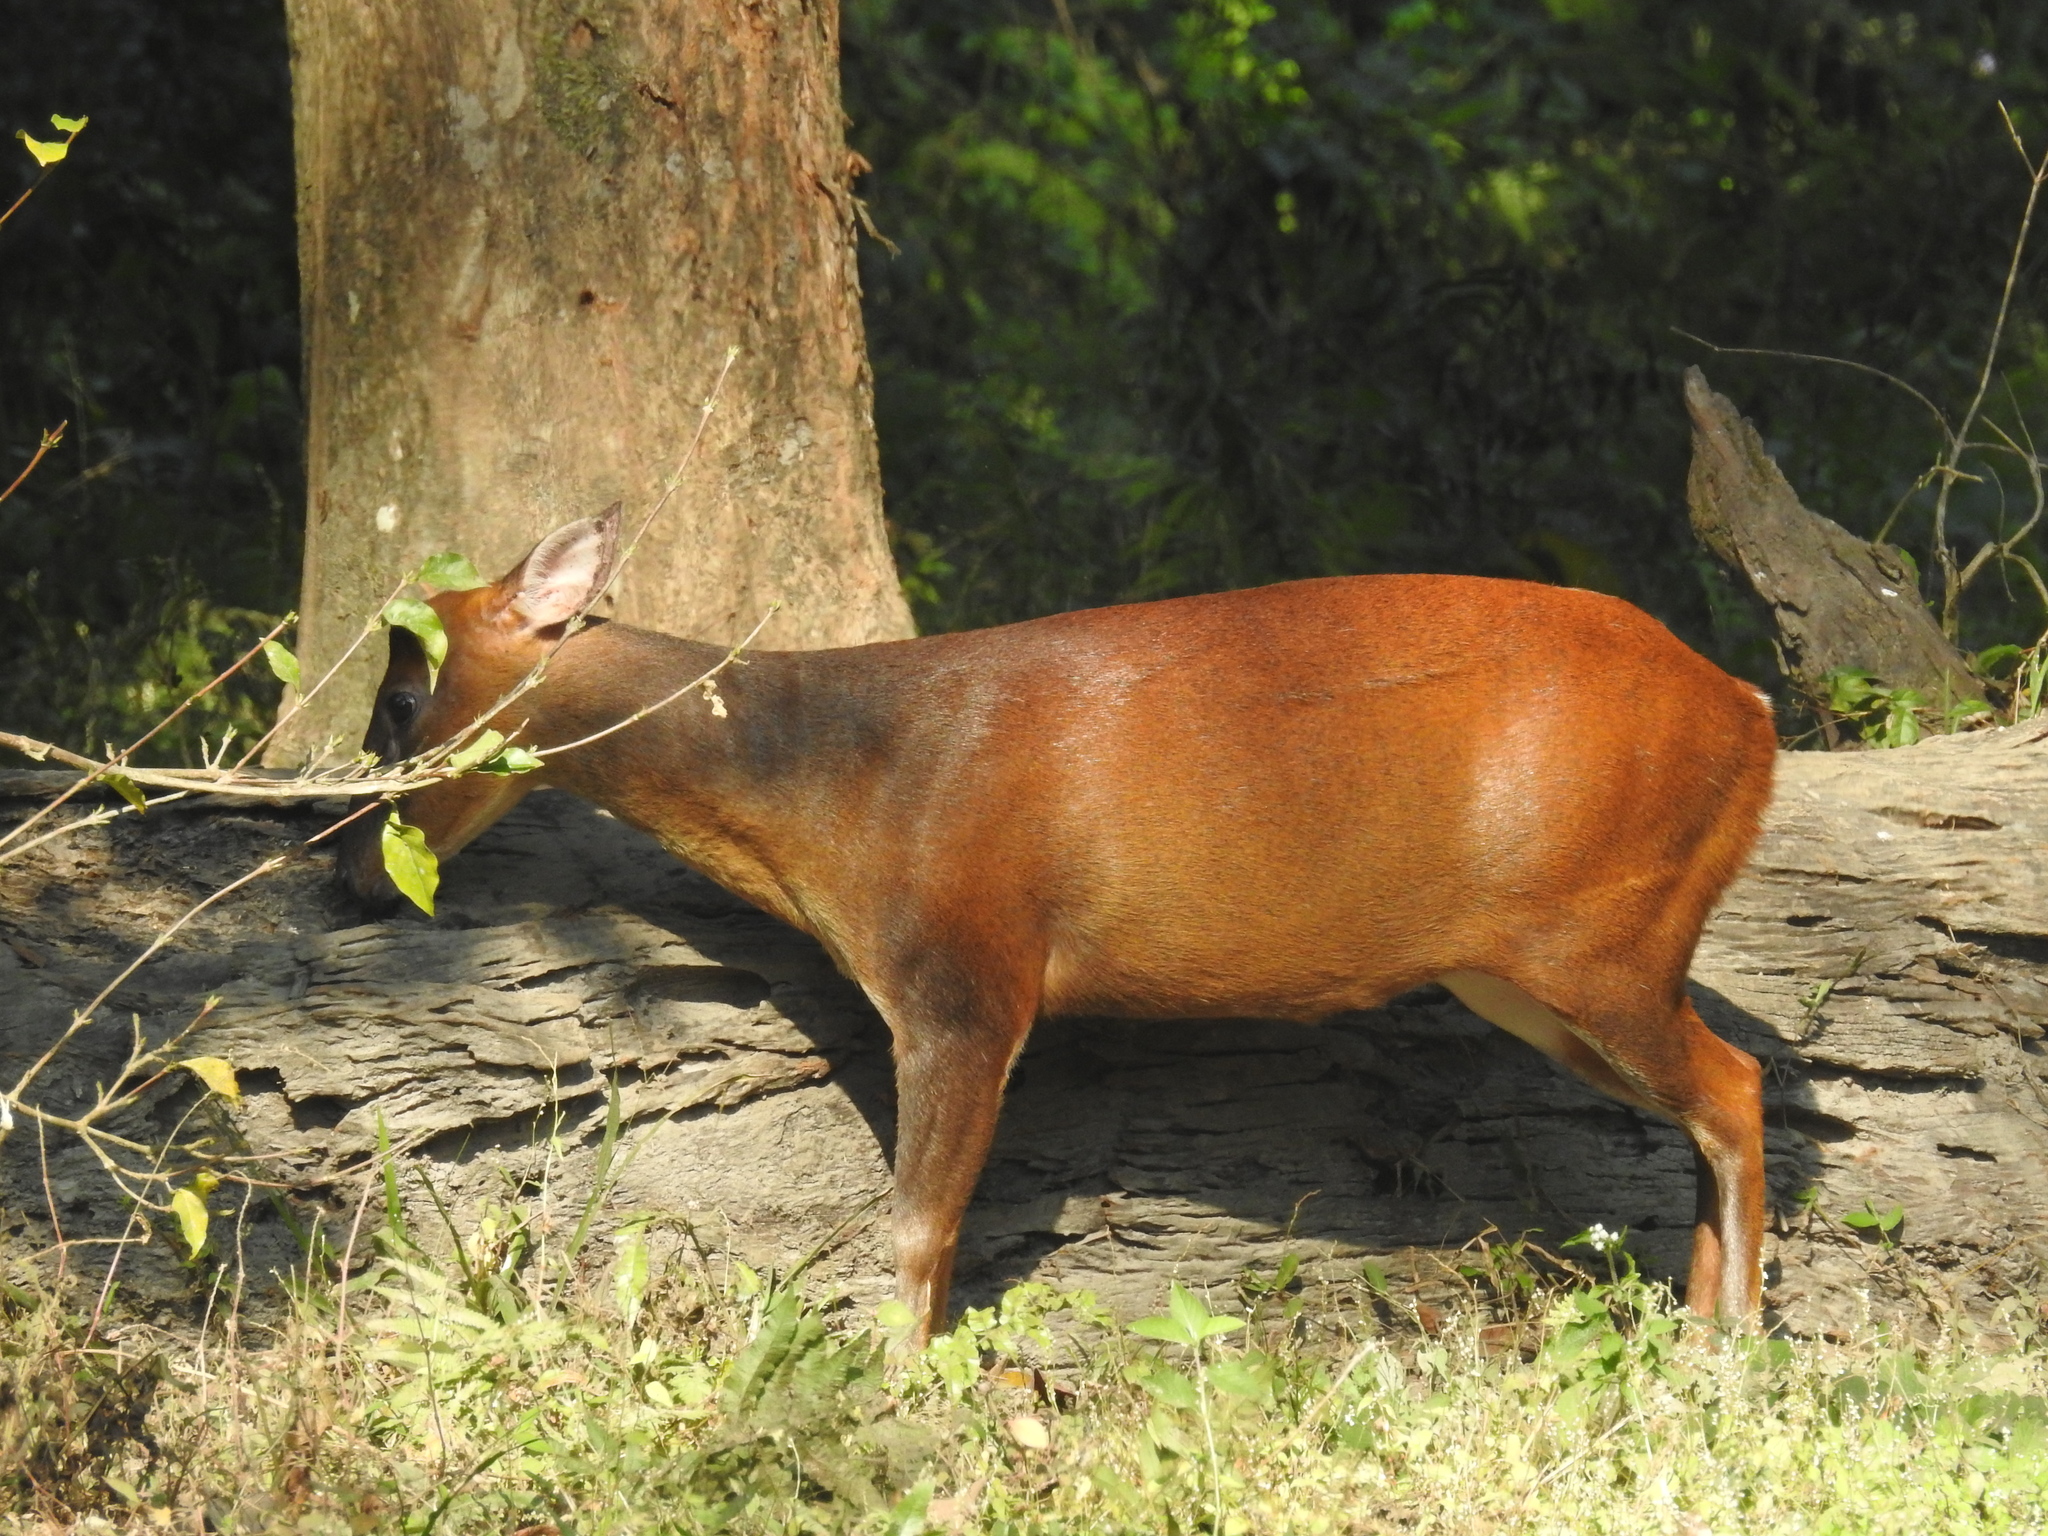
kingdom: Animalia
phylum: Chordata
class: Mammalia
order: Artiodactyla
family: Cervidae
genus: Muntiacus
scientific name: Muntiacus muntjak
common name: Indian muntjac
